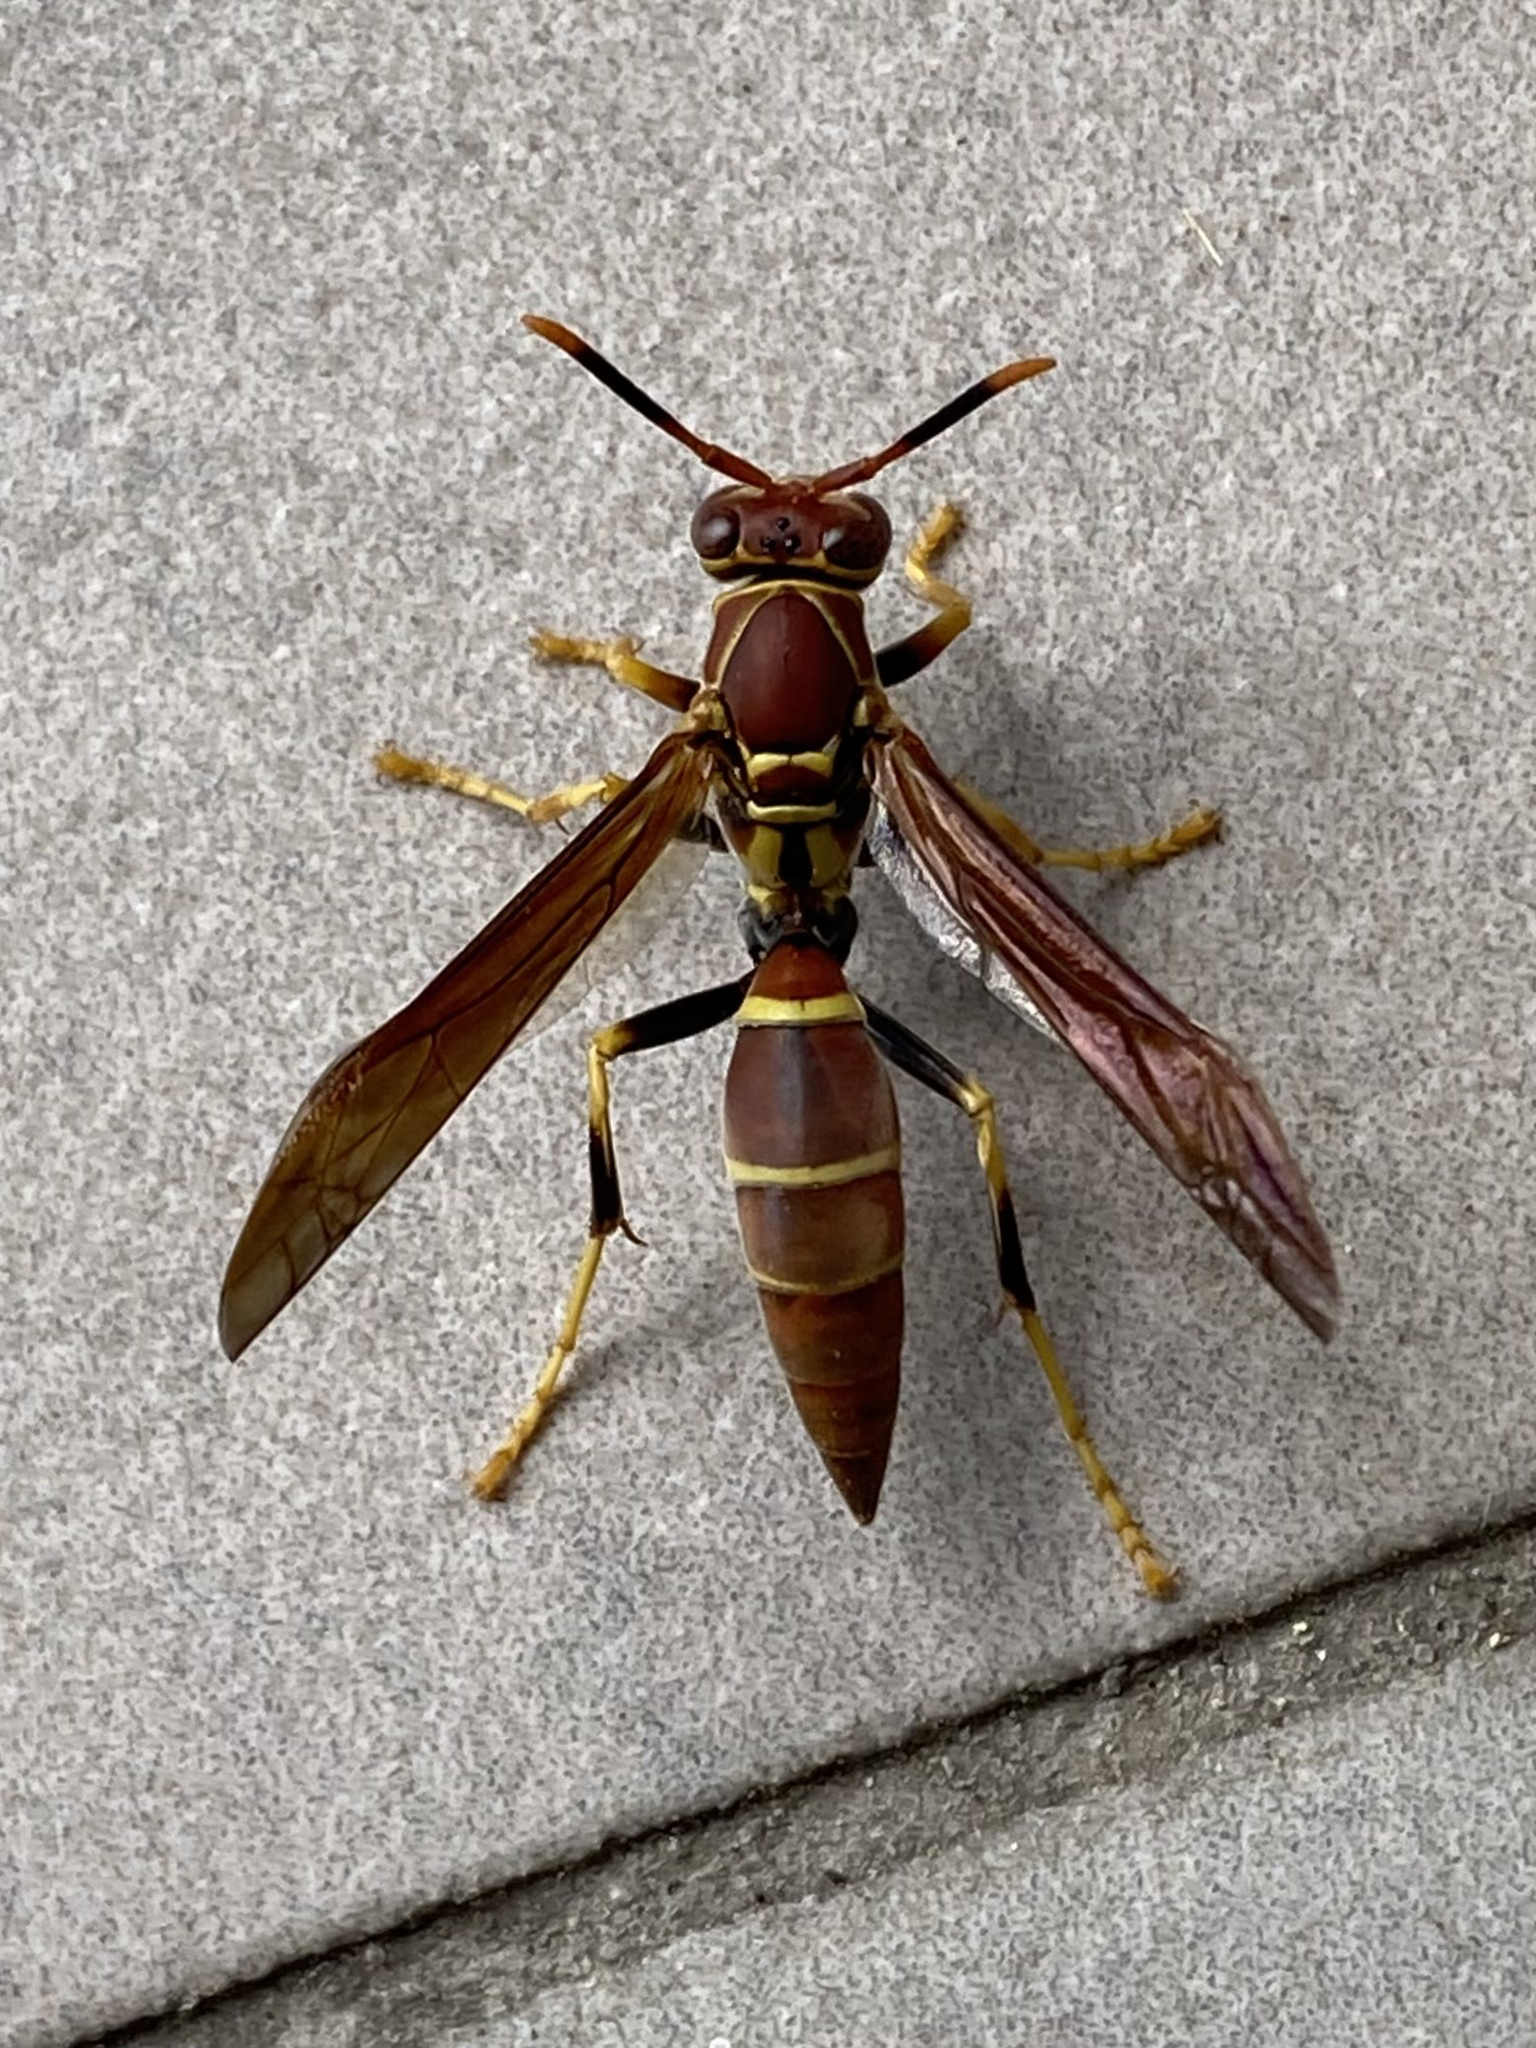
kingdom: Animalia
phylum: Arthropoda
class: Insecta
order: Hymenoptera
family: Eumenidae
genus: Polistes
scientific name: Polistes instabilis
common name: Unstable paper wasp
